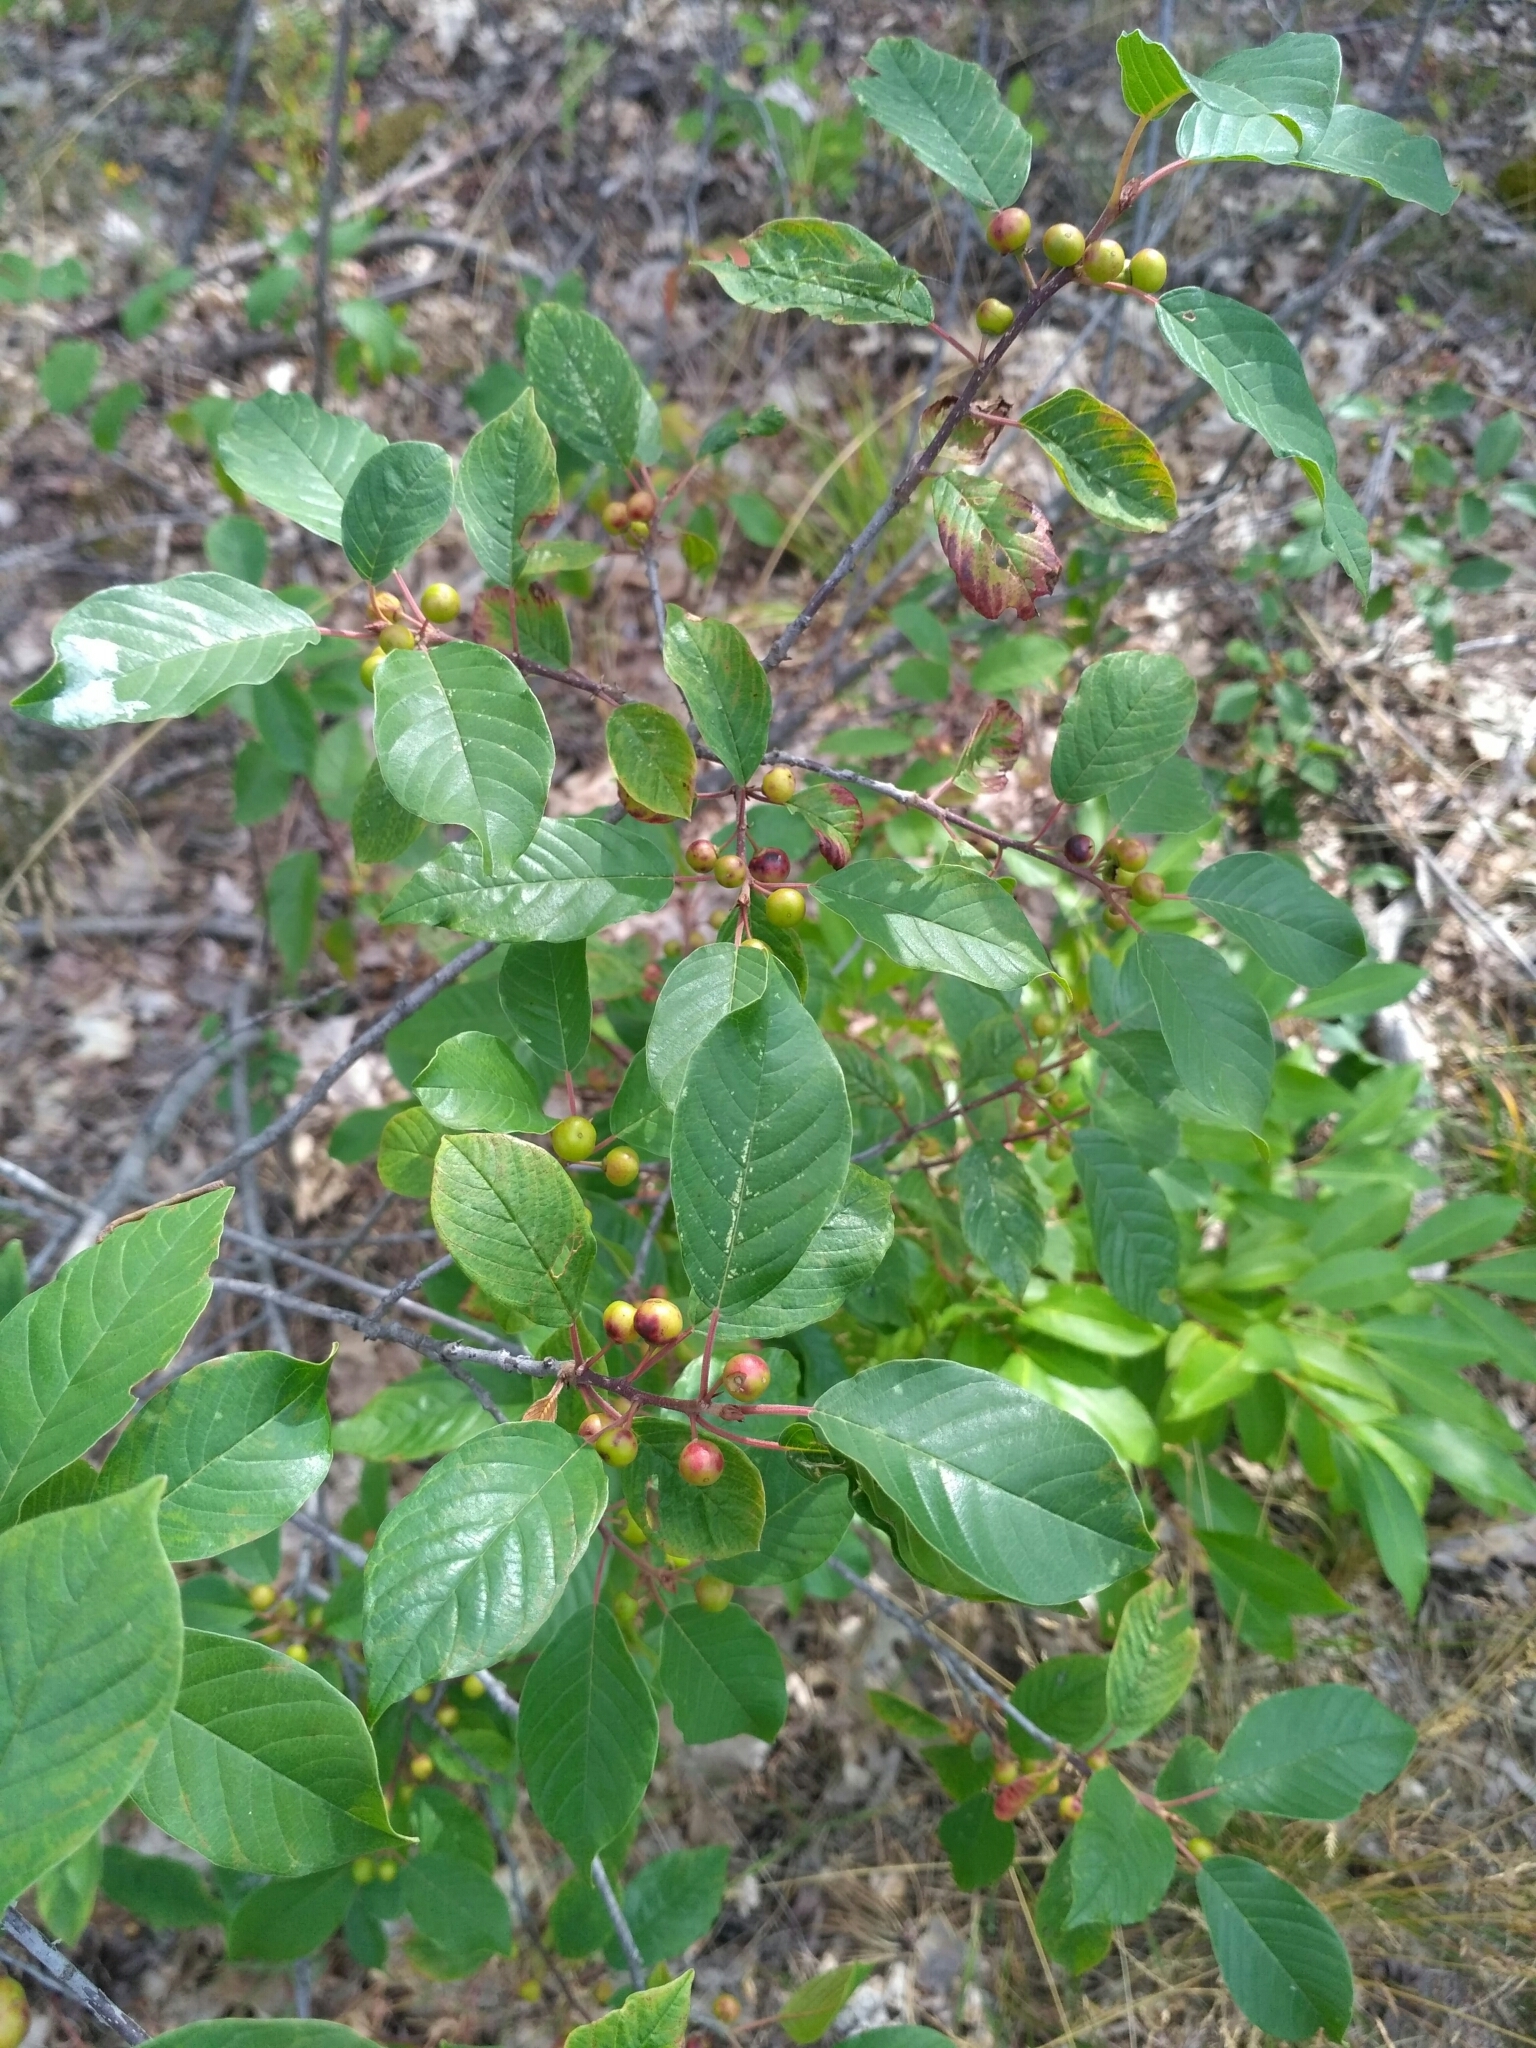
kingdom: Plantae
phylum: Tracheophyta
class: Magnoliopsida
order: Rosales
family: Rhamnaceae
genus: Frangula
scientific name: Frangula alnus
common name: Alder buckthorn
